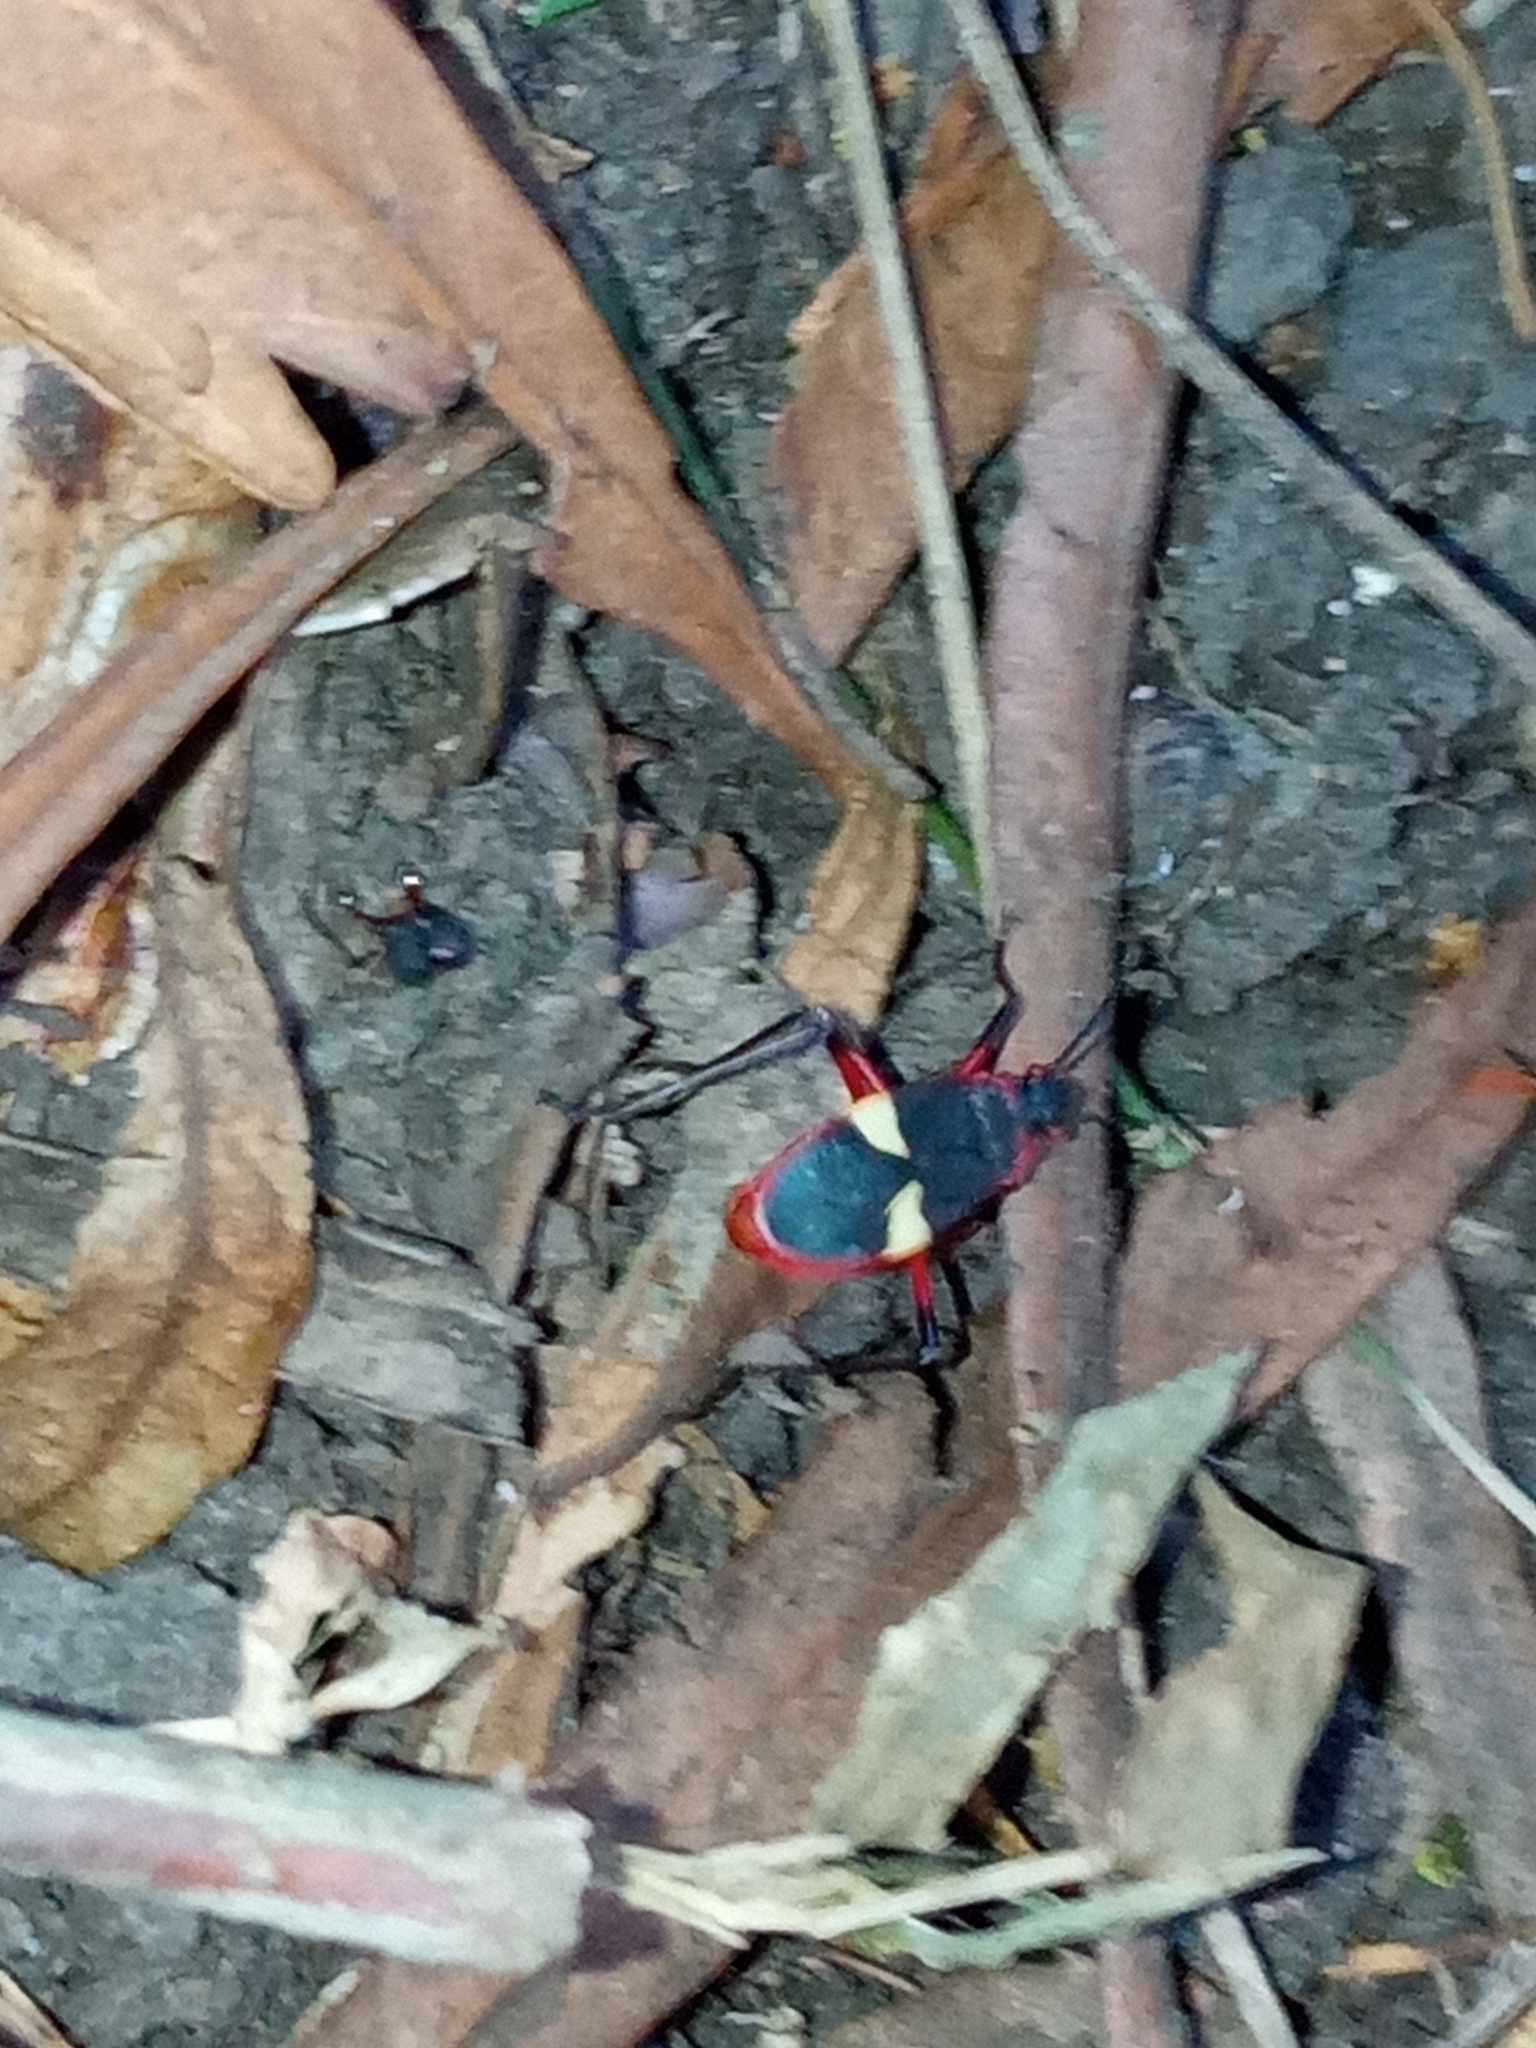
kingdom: Animalia
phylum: Arthropoda
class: Insecta
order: Hemiptera
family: Pyrrhocoridae
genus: Dysdercus
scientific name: Dysdercus albofasciatus
